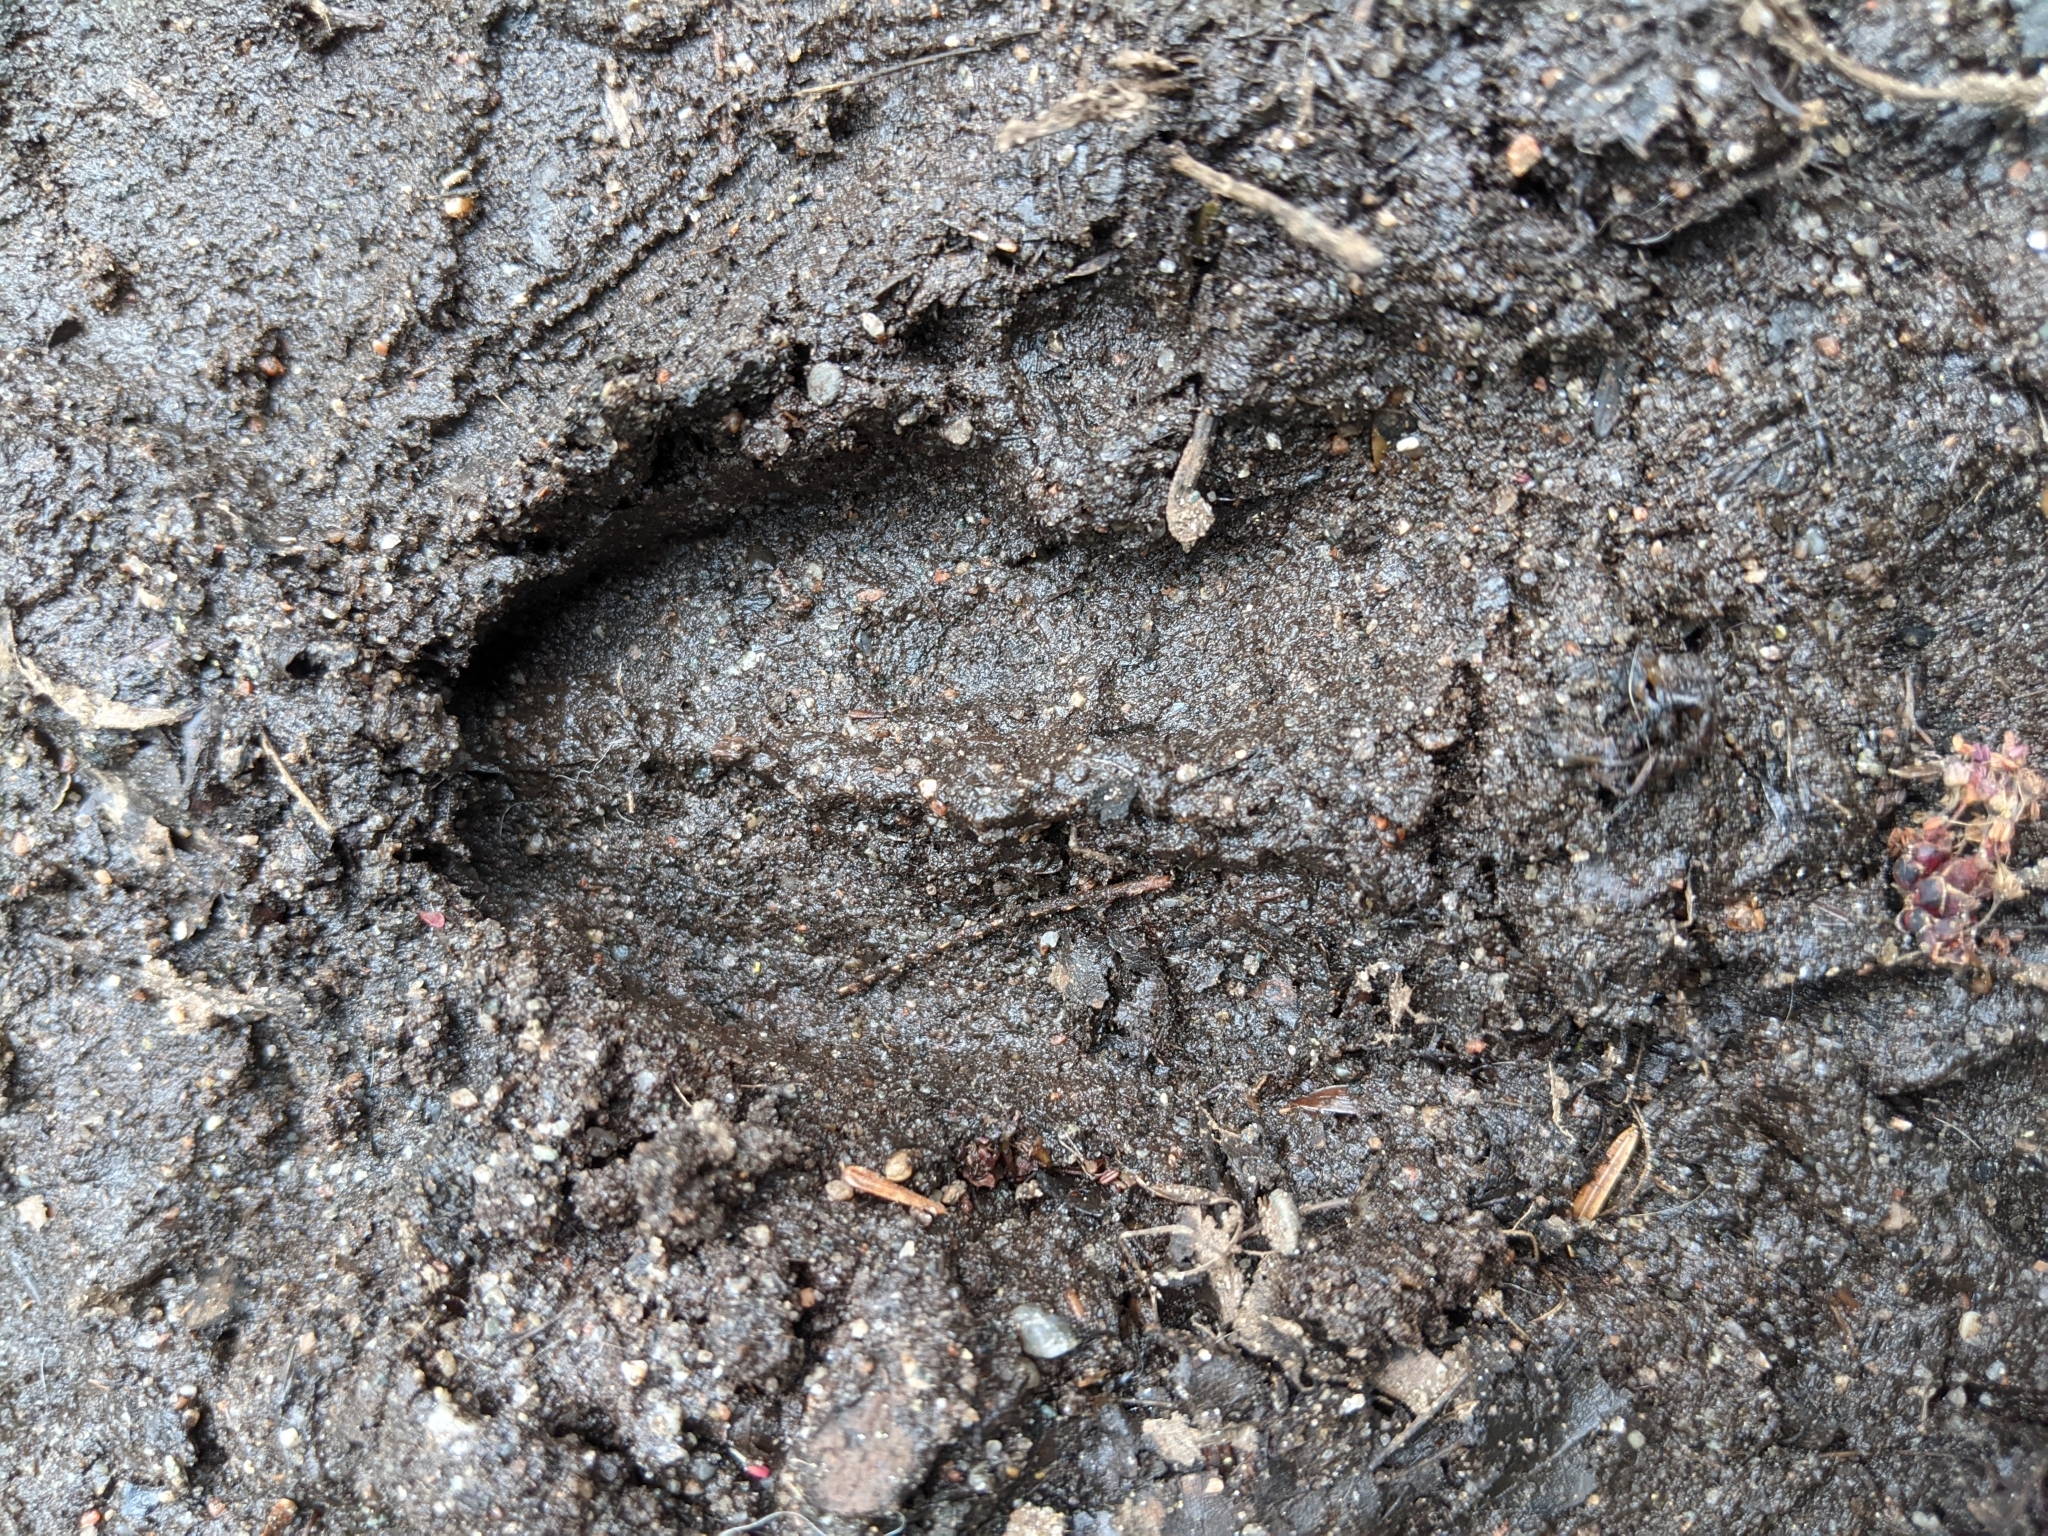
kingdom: Animalia
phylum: Chordata
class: Mammalia
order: Artiodactyla
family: Cervidae
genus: Odocoileus
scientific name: Odocoileus virginianus
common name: White-tailed deer
